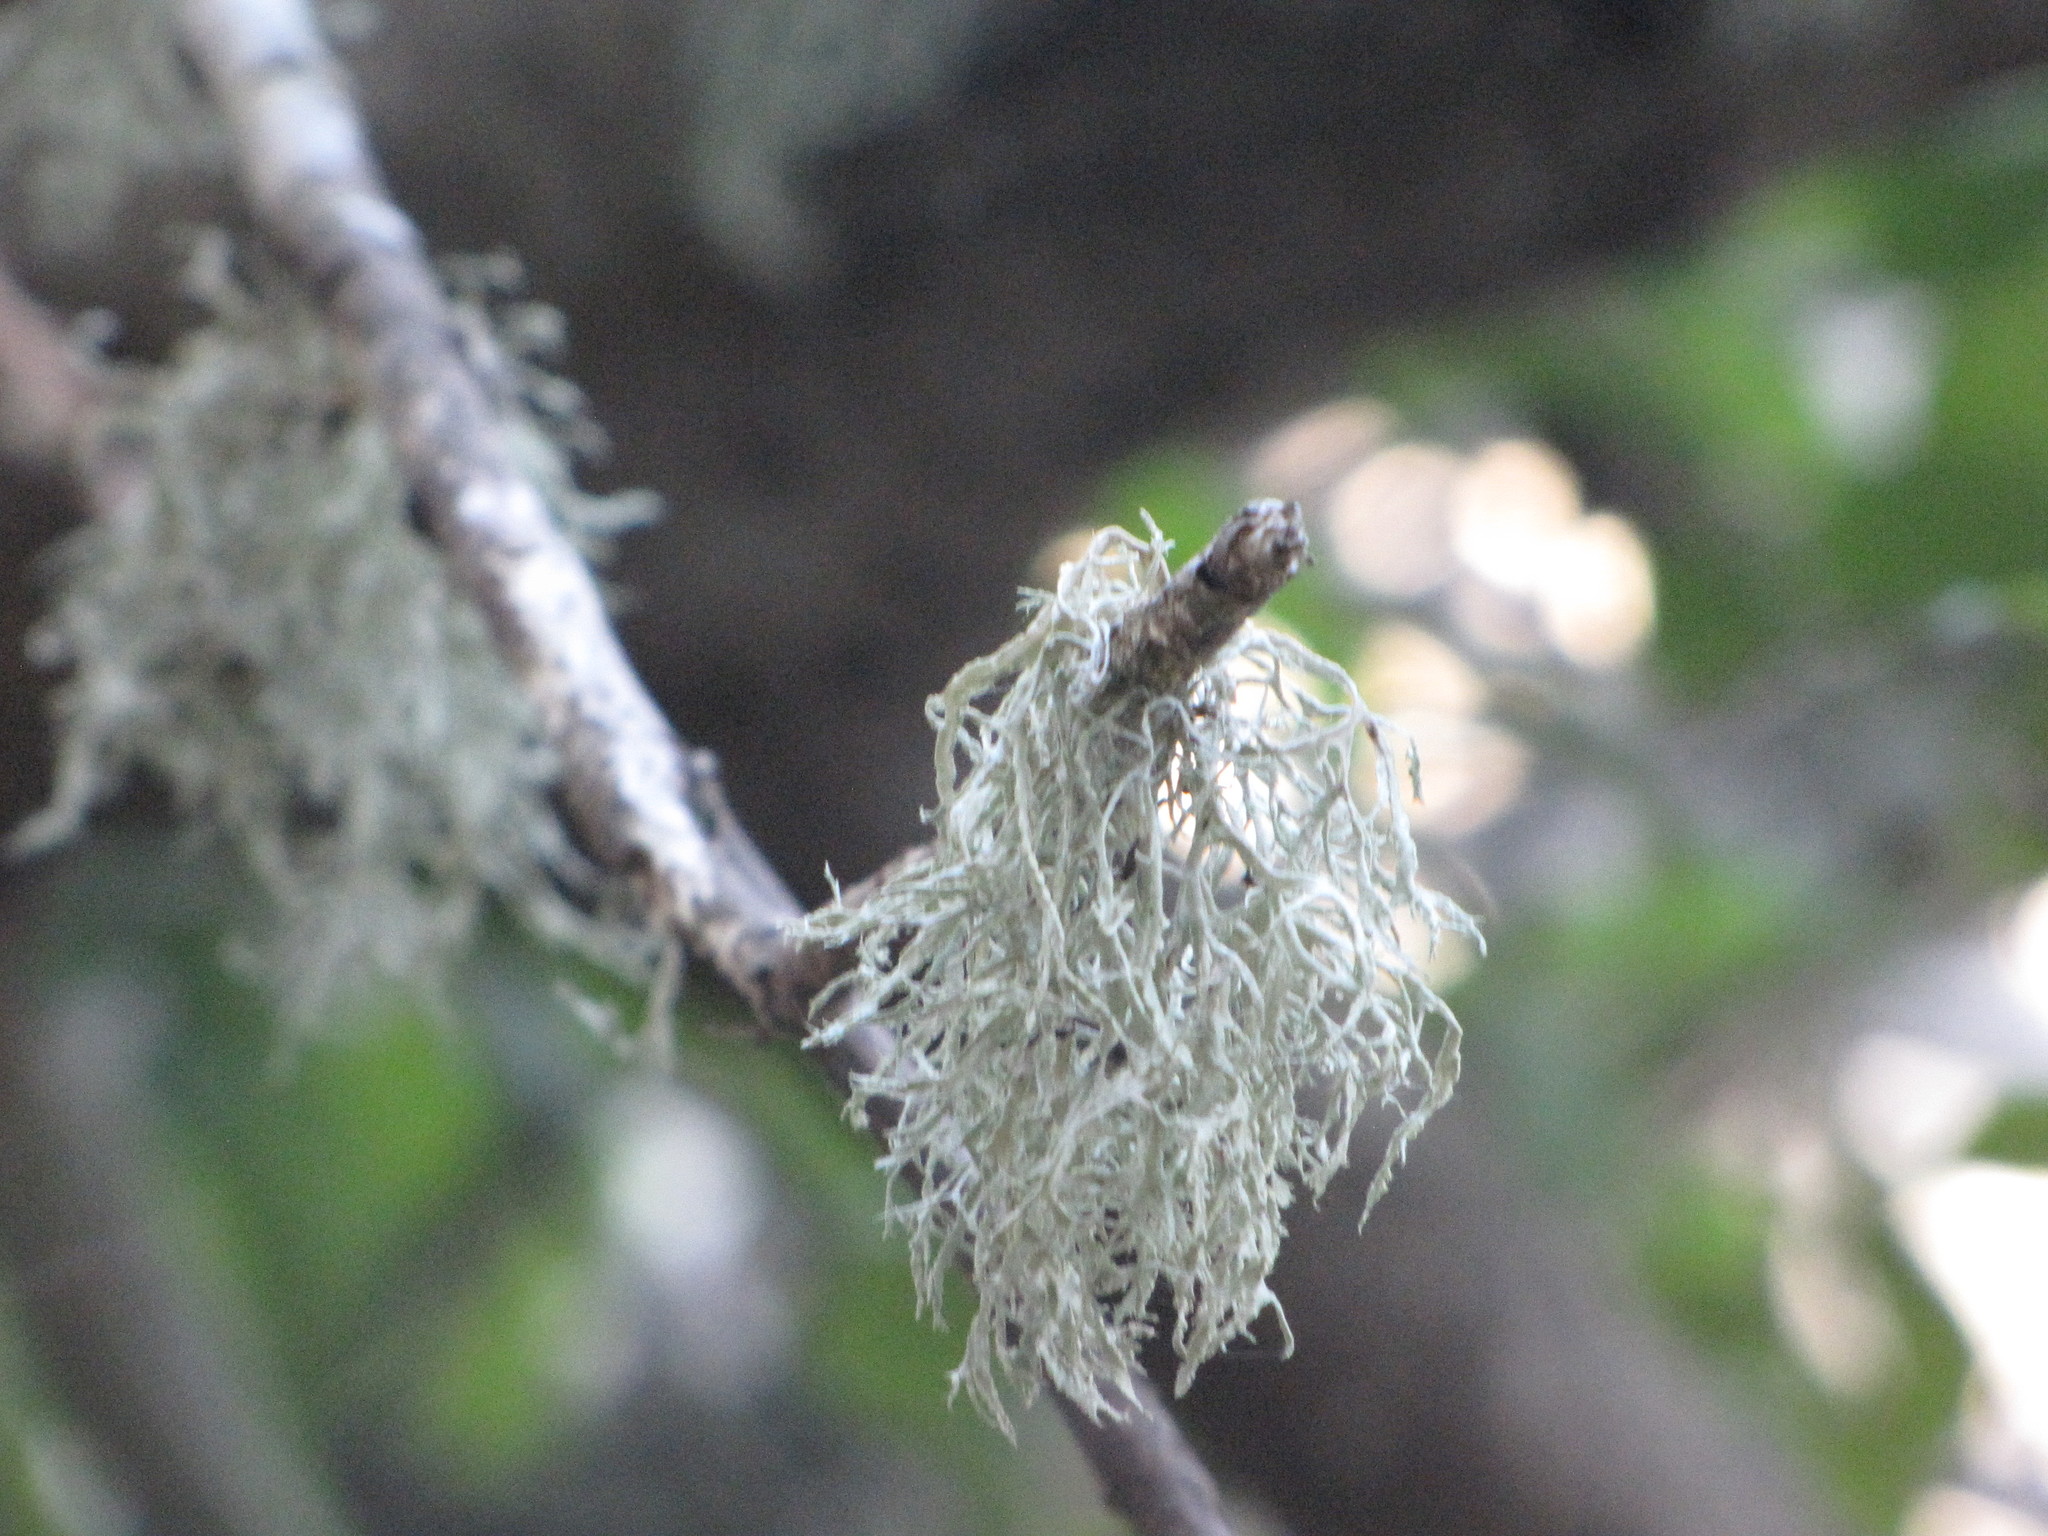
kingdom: Fungi
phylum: Ascomycota
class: Lecanoromycetes
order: Lecanorales
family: Ramalinaceae
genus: Ramalina
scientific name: Ramalina farinacea
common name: Farinose cartilage lichen
